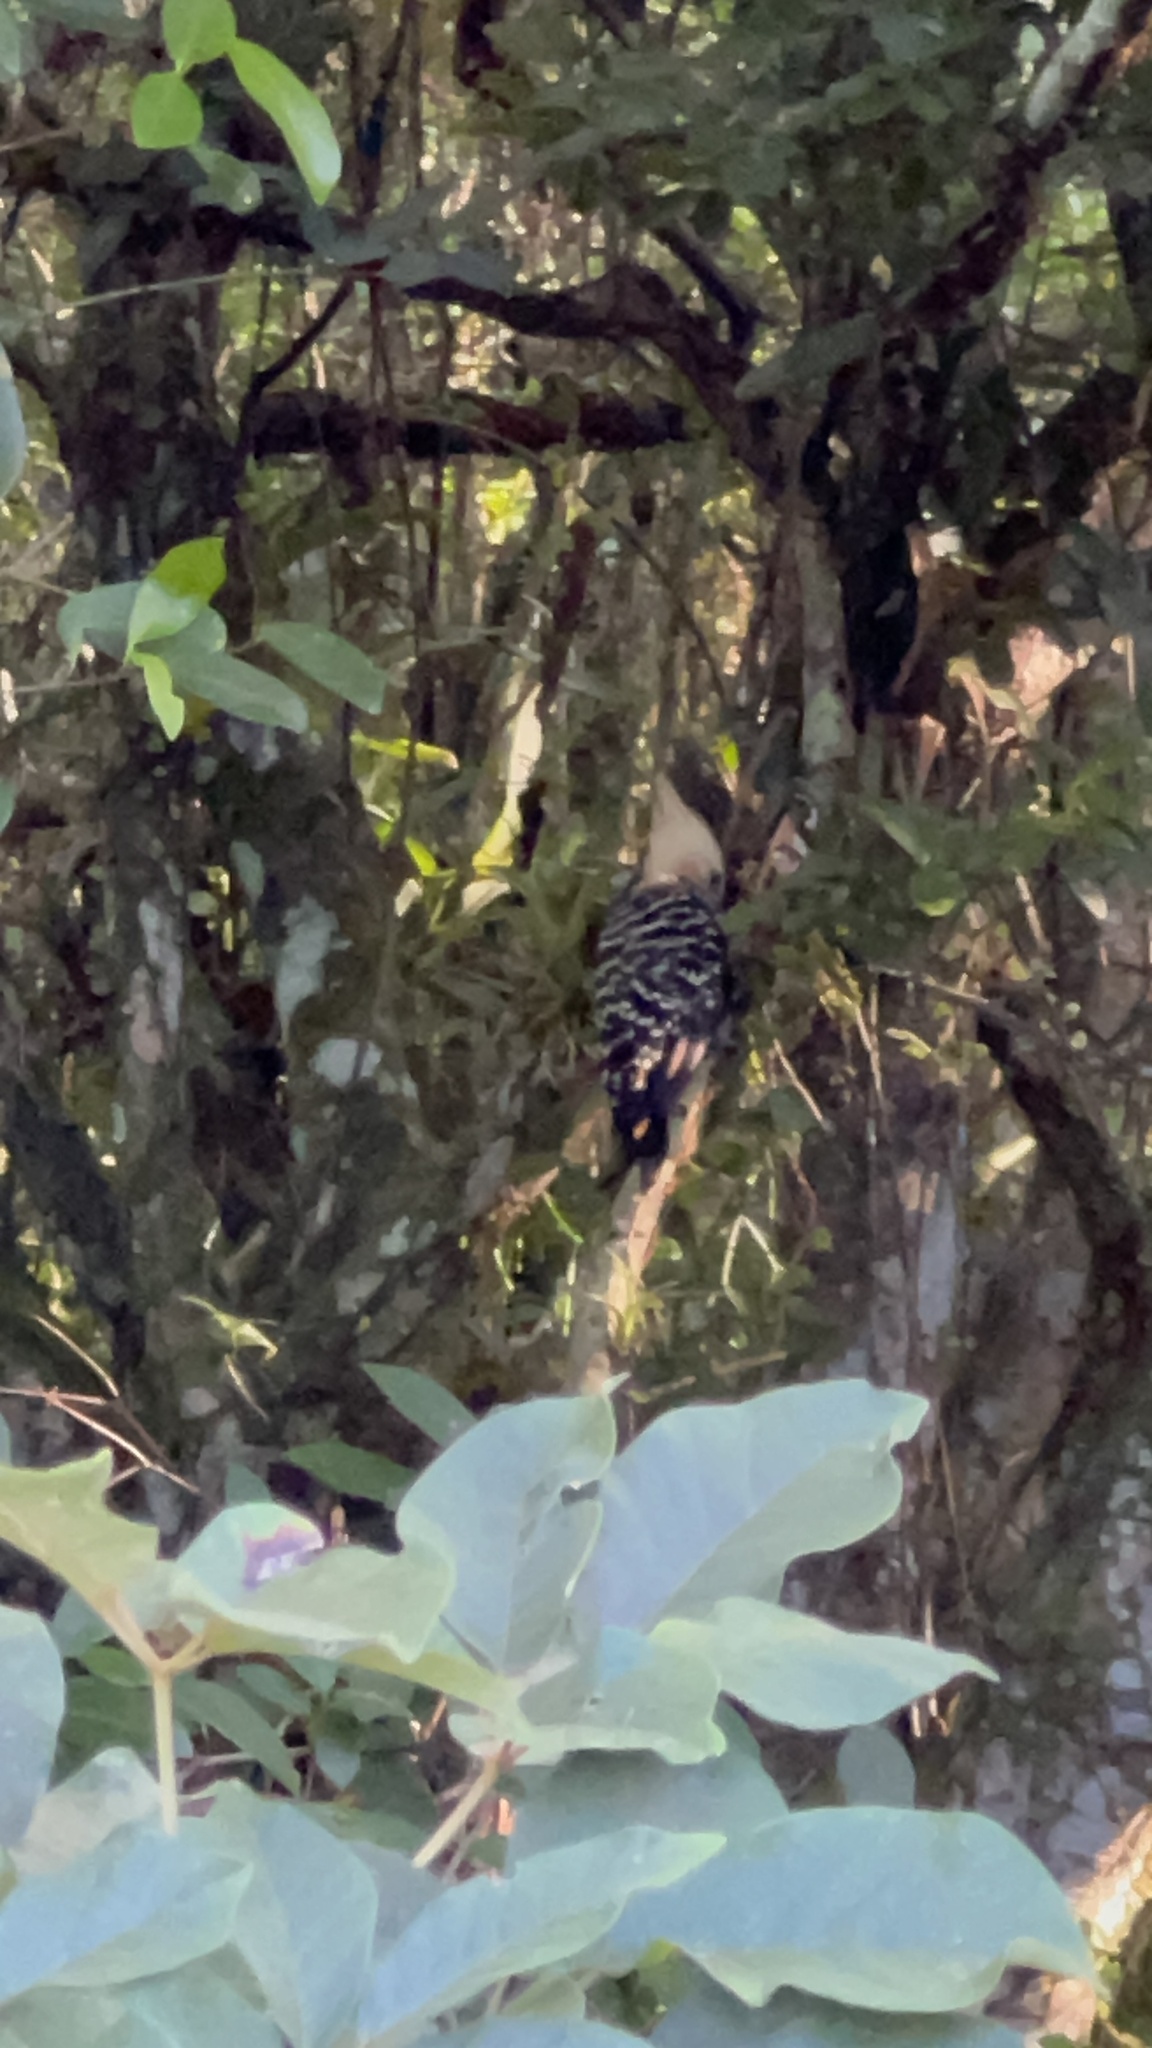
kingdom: Animalia
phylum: Chordata
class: Aves
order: Piciformes
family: Picidae
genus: Celeus
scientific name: Celeus flavescens
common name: Blond-crested woodpecker
